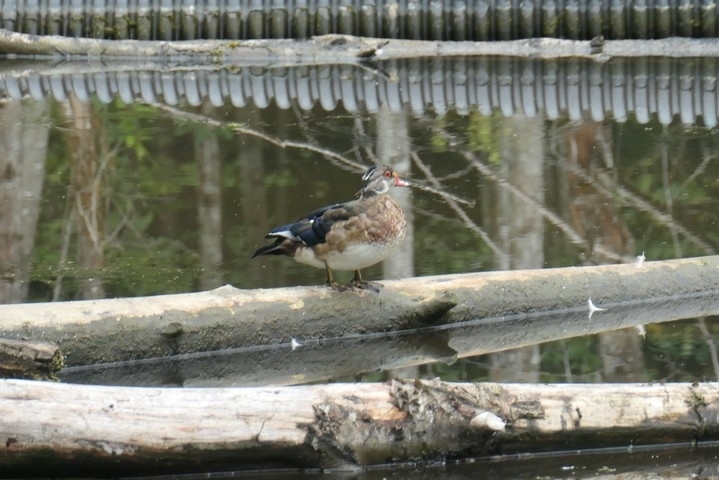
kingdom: Animalia
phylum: Chordata
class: Aves
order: Anseriformes
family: Anatidae
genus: Aix
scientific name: Aix sponsa
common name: Wood duck
